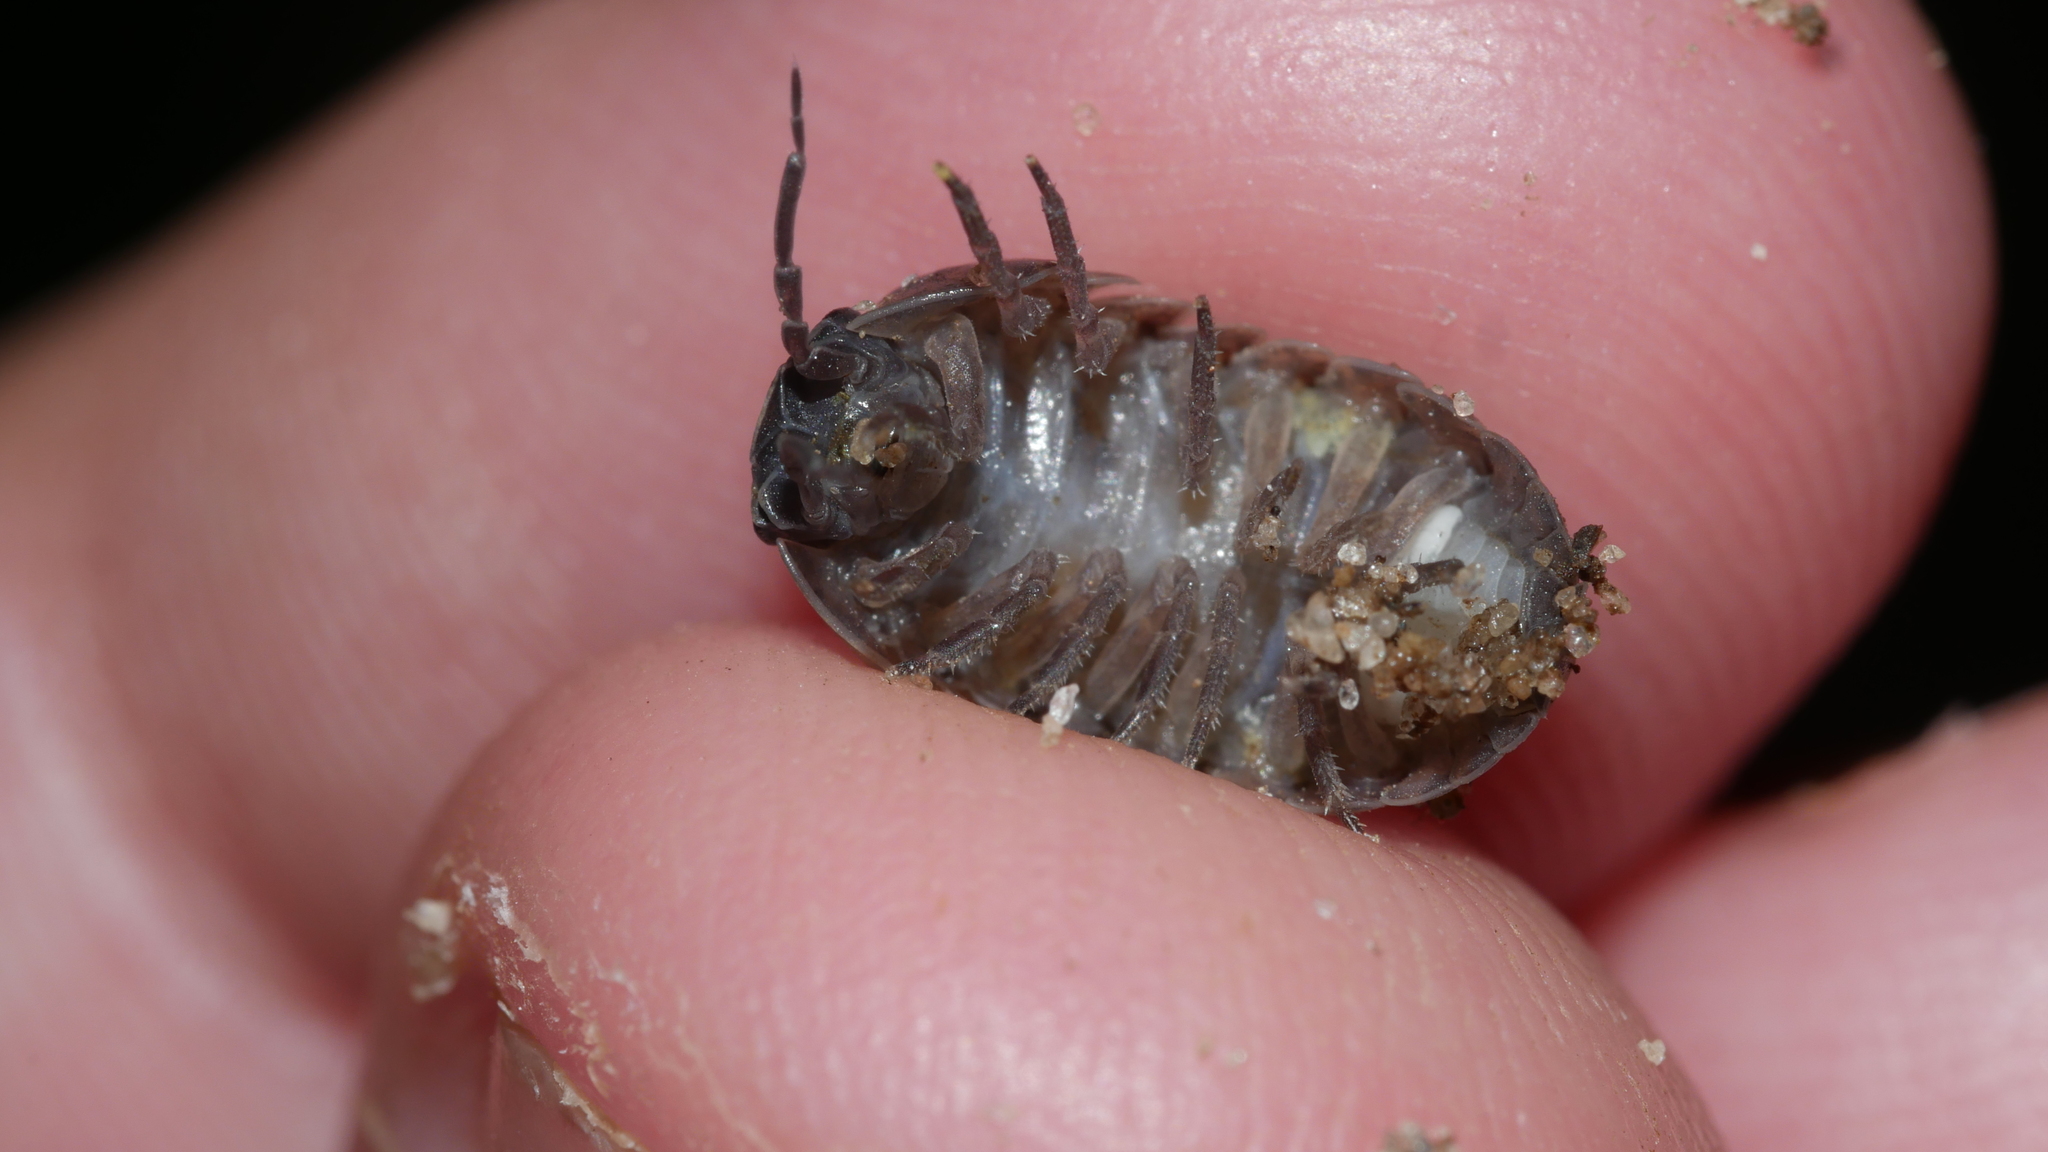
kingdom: Animalia
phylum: Arthropoda
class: Malacostraca
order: Isopoda
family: Armadillidiidae
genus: Armadillidium
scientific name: Armadillidium vulgare
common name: Common pill woodlouse
